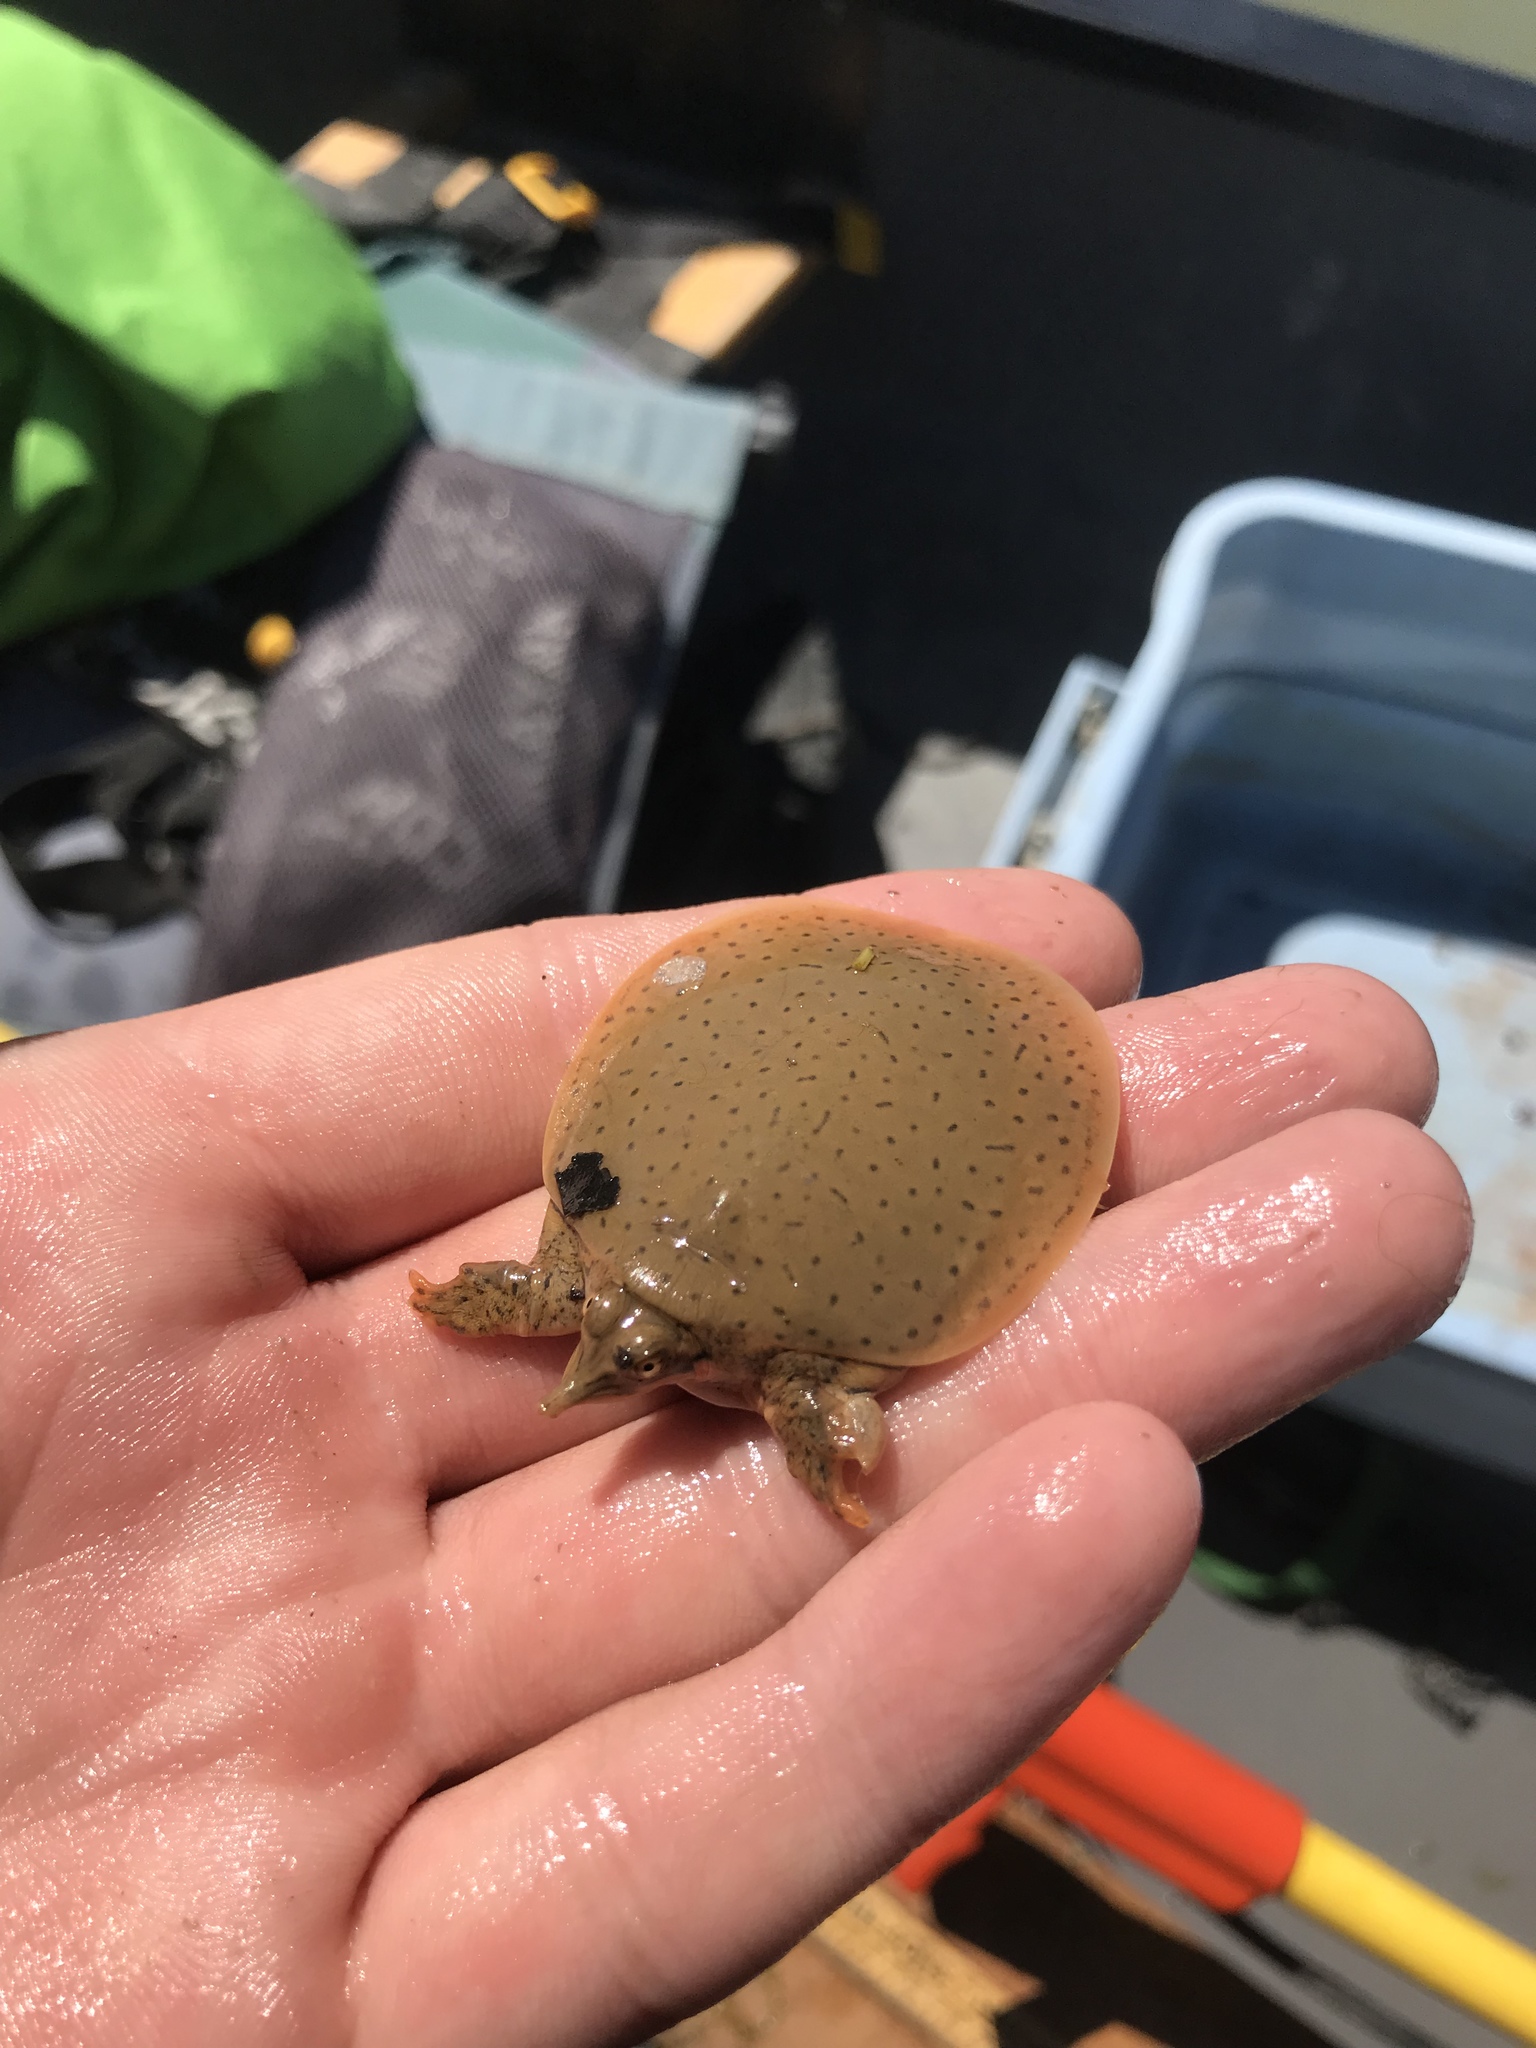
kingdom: Animalia
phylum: Chordata
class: Testudines
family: Trionychidae
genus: Apalone
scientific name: Apalone mutica
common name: Smooth softshell turtle
